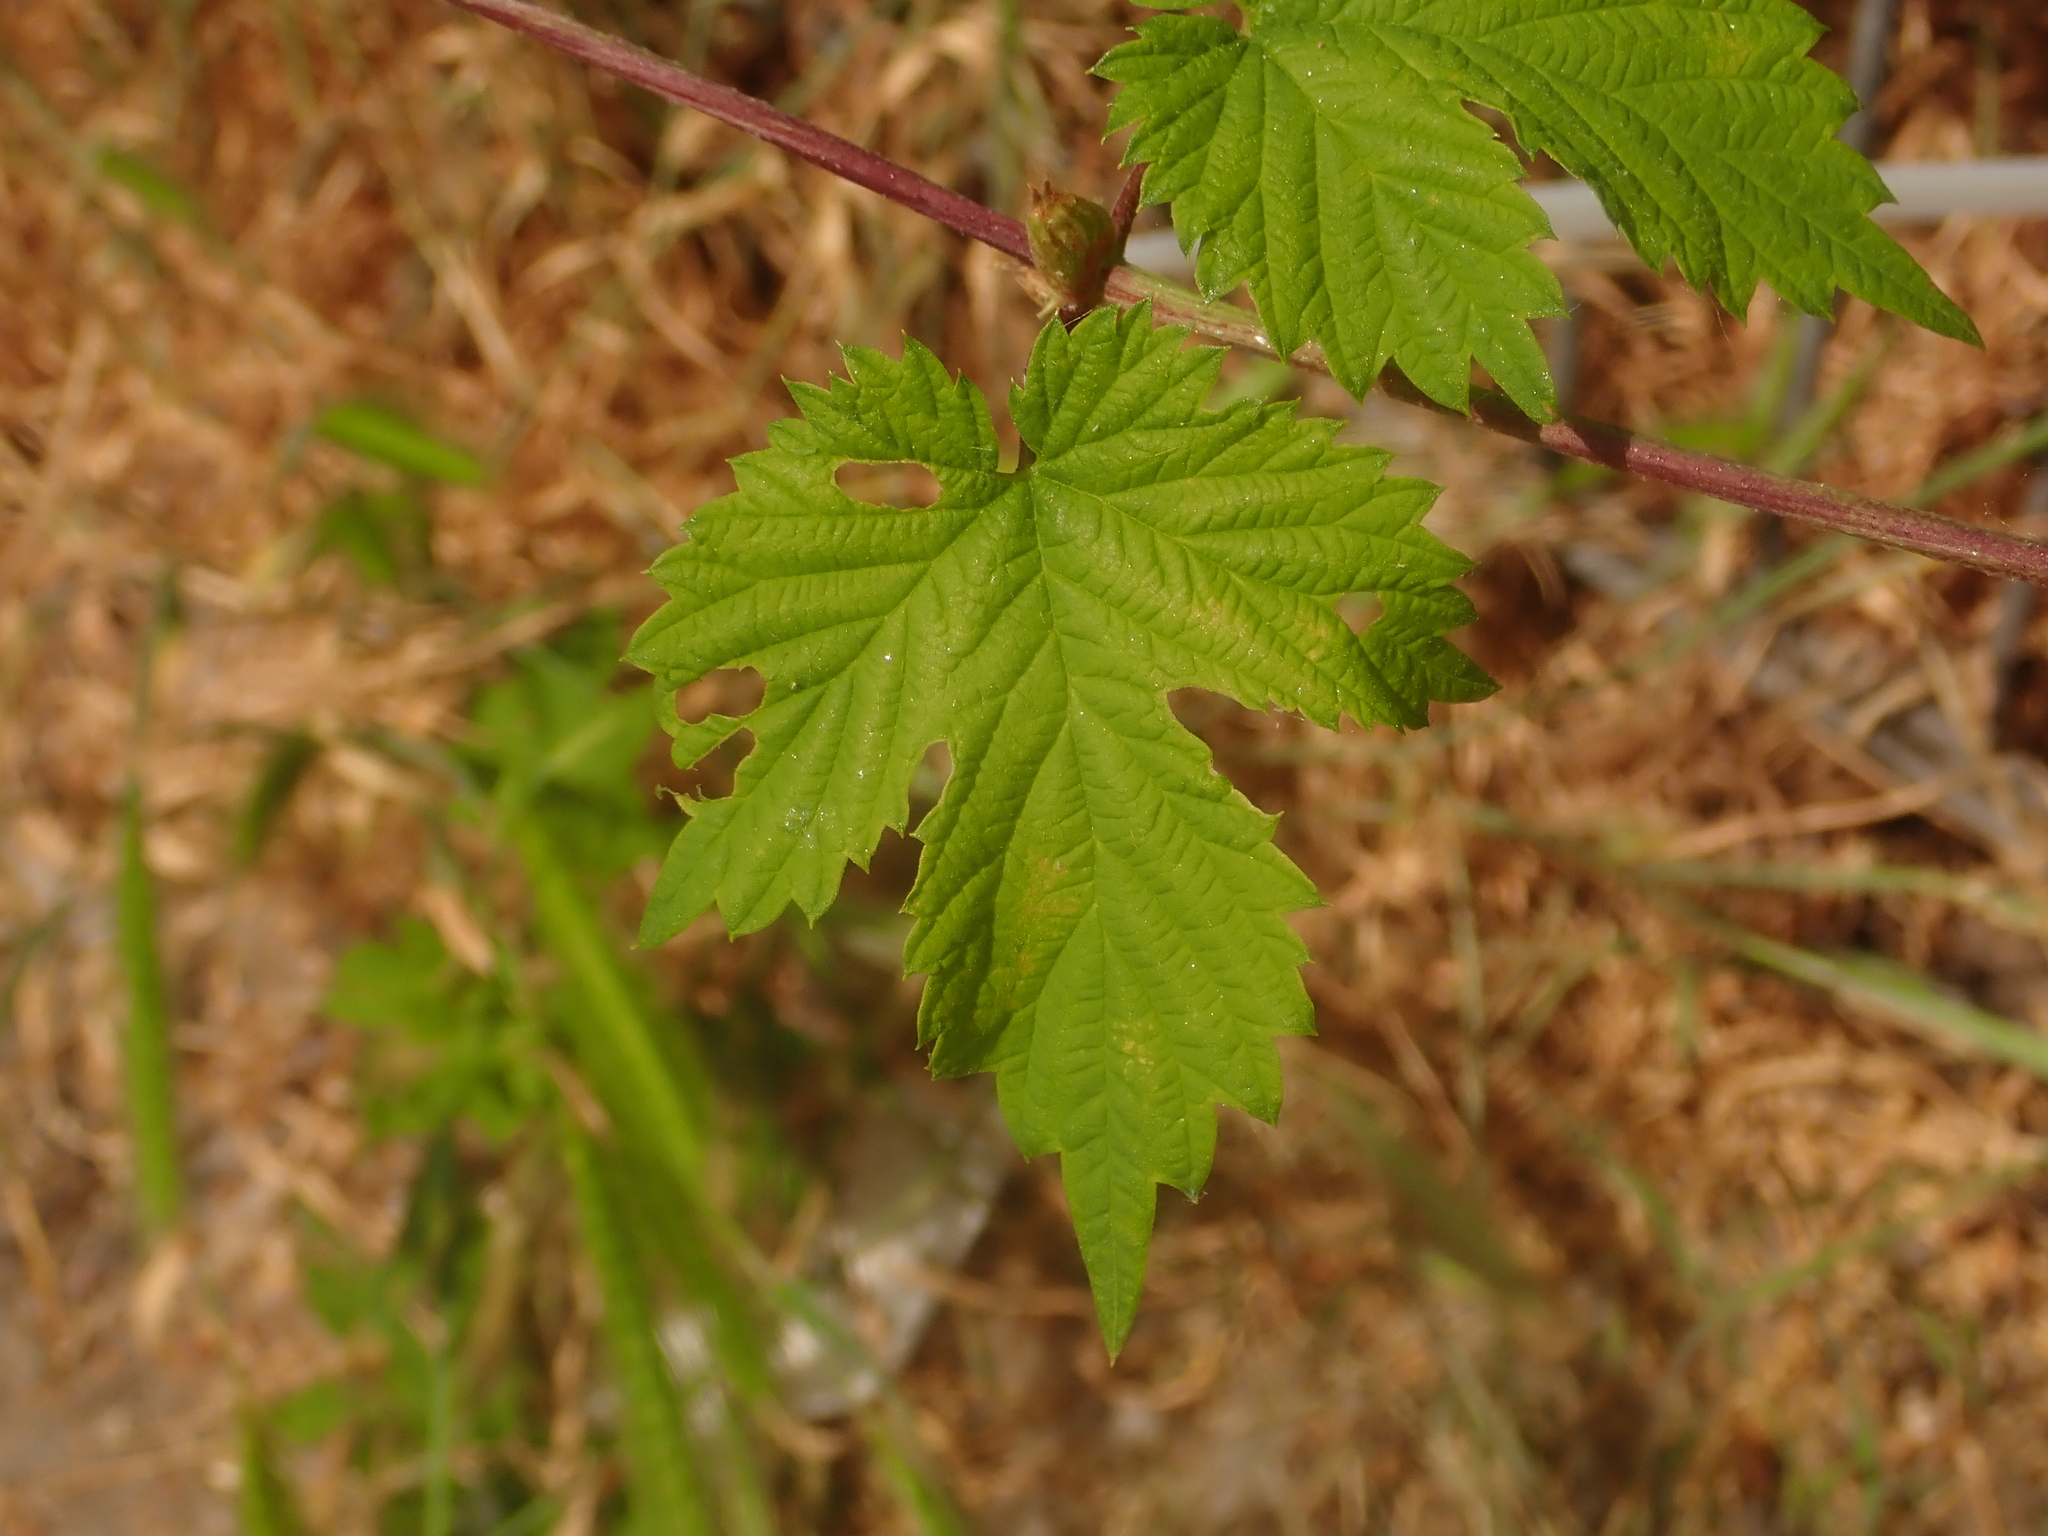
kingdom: Plantae
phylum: Tracheophyta
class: Magnoliopsida
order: Rosales
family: Cannabaceae
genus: Humulus
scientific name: Humulus lupulus
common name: Hop
